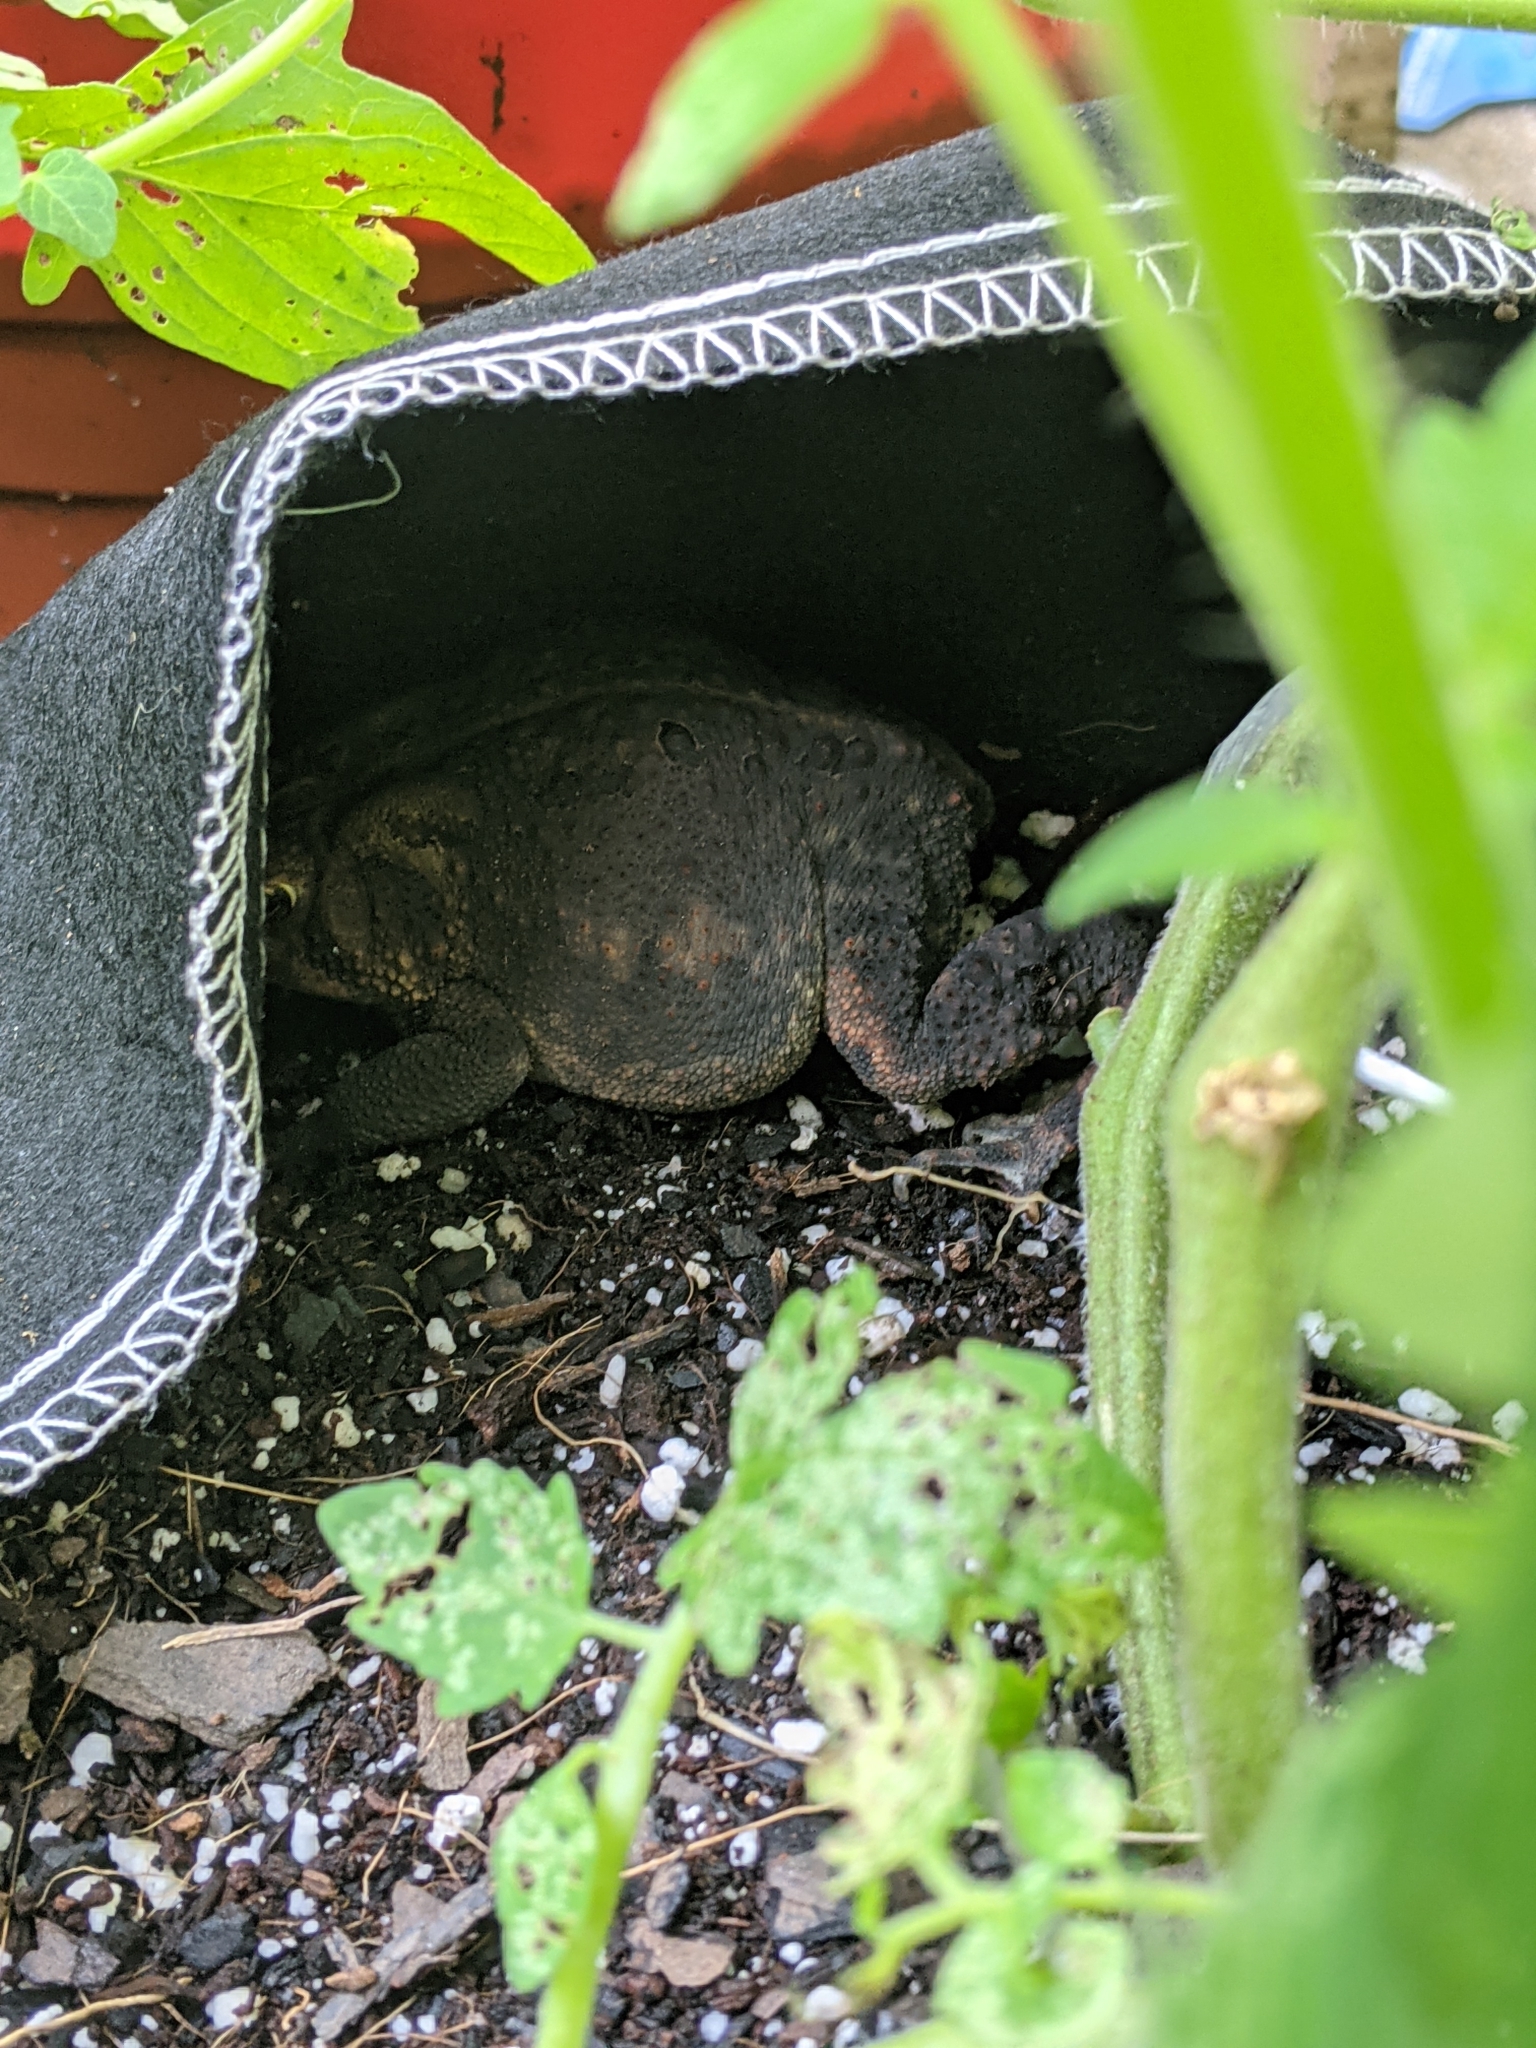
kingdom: Animalia
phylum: Chordata
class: Amphibia
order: Anura
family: Bufonidae
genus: Anaxyrus
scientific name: Anaxyrus americanus
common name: American toad
